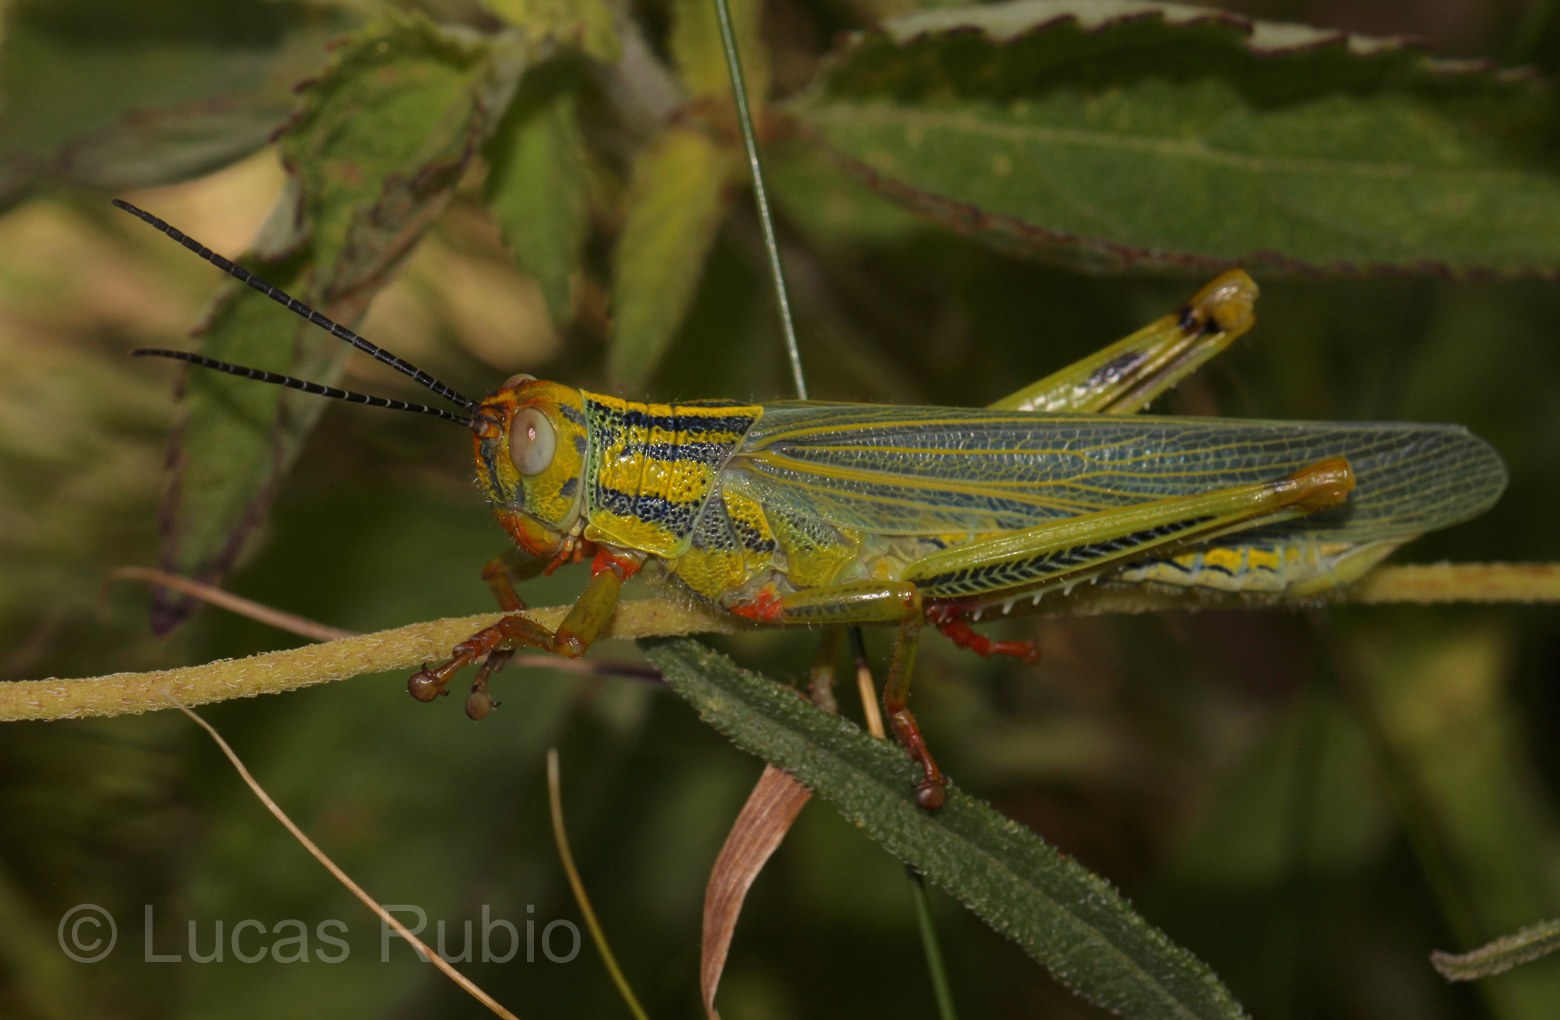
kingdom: Animalia
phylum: Arthropoda
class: Insecta
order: Orthoptera
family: Romaleidae
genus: Zoniopoda
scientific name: Zoniopoda serrana
